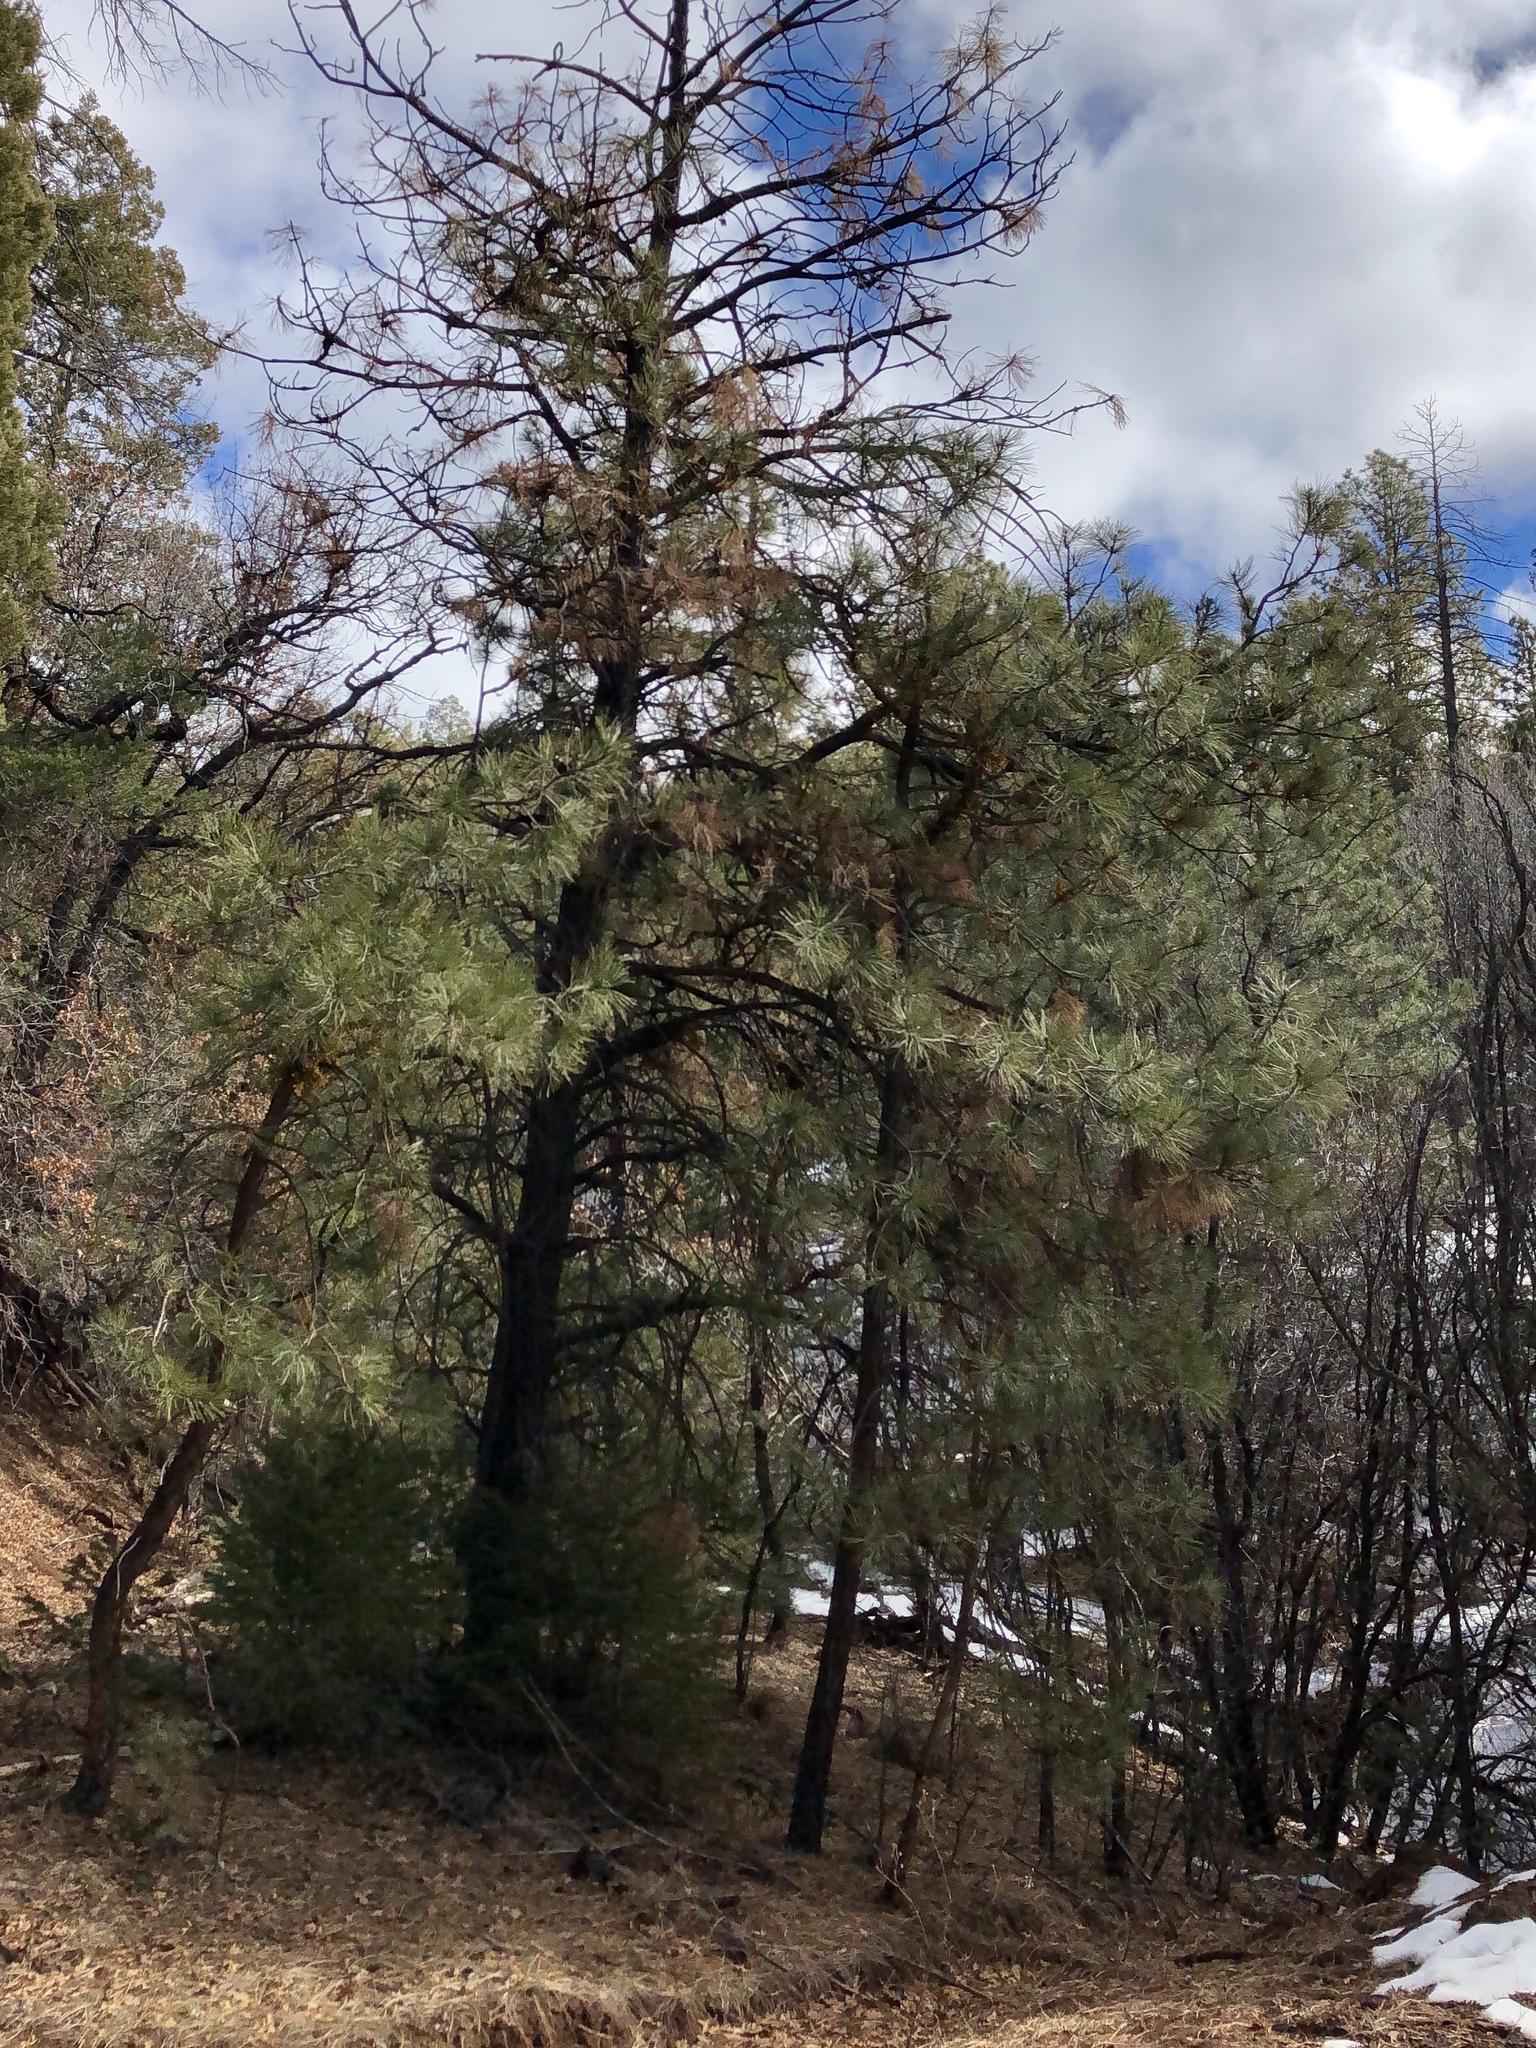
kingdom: Plantae
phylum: Tracheophyta
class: Pinopsida
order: Pinales
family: Pinaceae
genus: Pinus
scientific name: Pinus ponderosa
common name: Western yellow-pine
